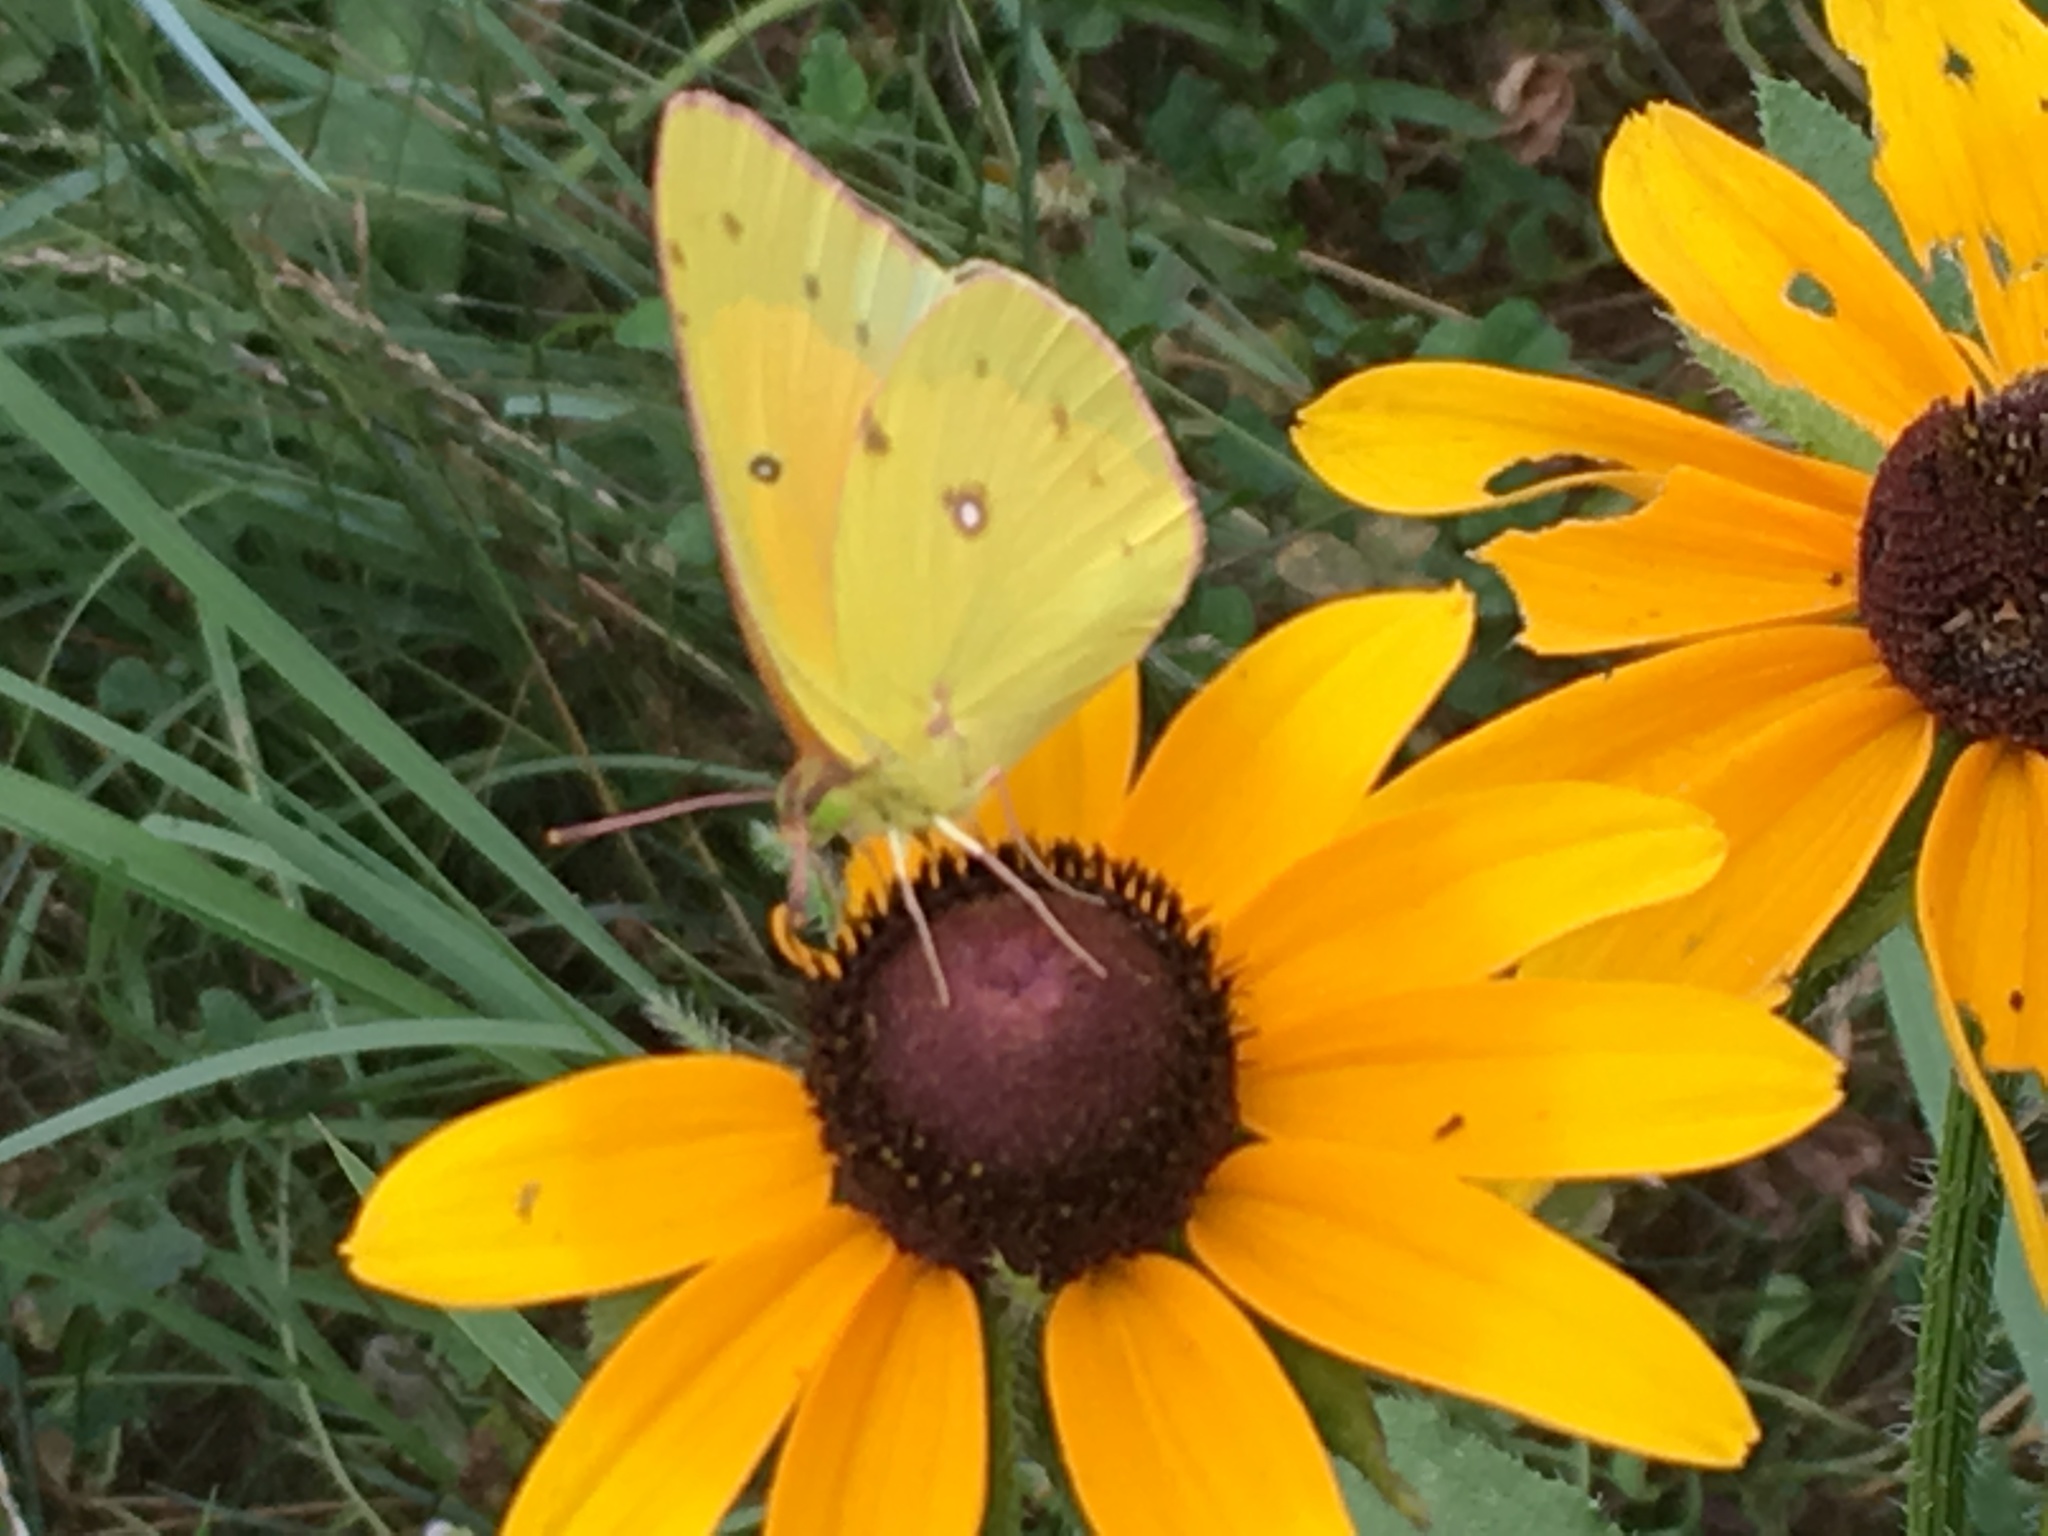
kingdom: Animalia
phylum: Arthropoda
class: Insecta
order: Lepidoptera
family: Pieridae
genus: Colias
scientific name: Colias eurytheme
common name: Alfalfa butterfly
